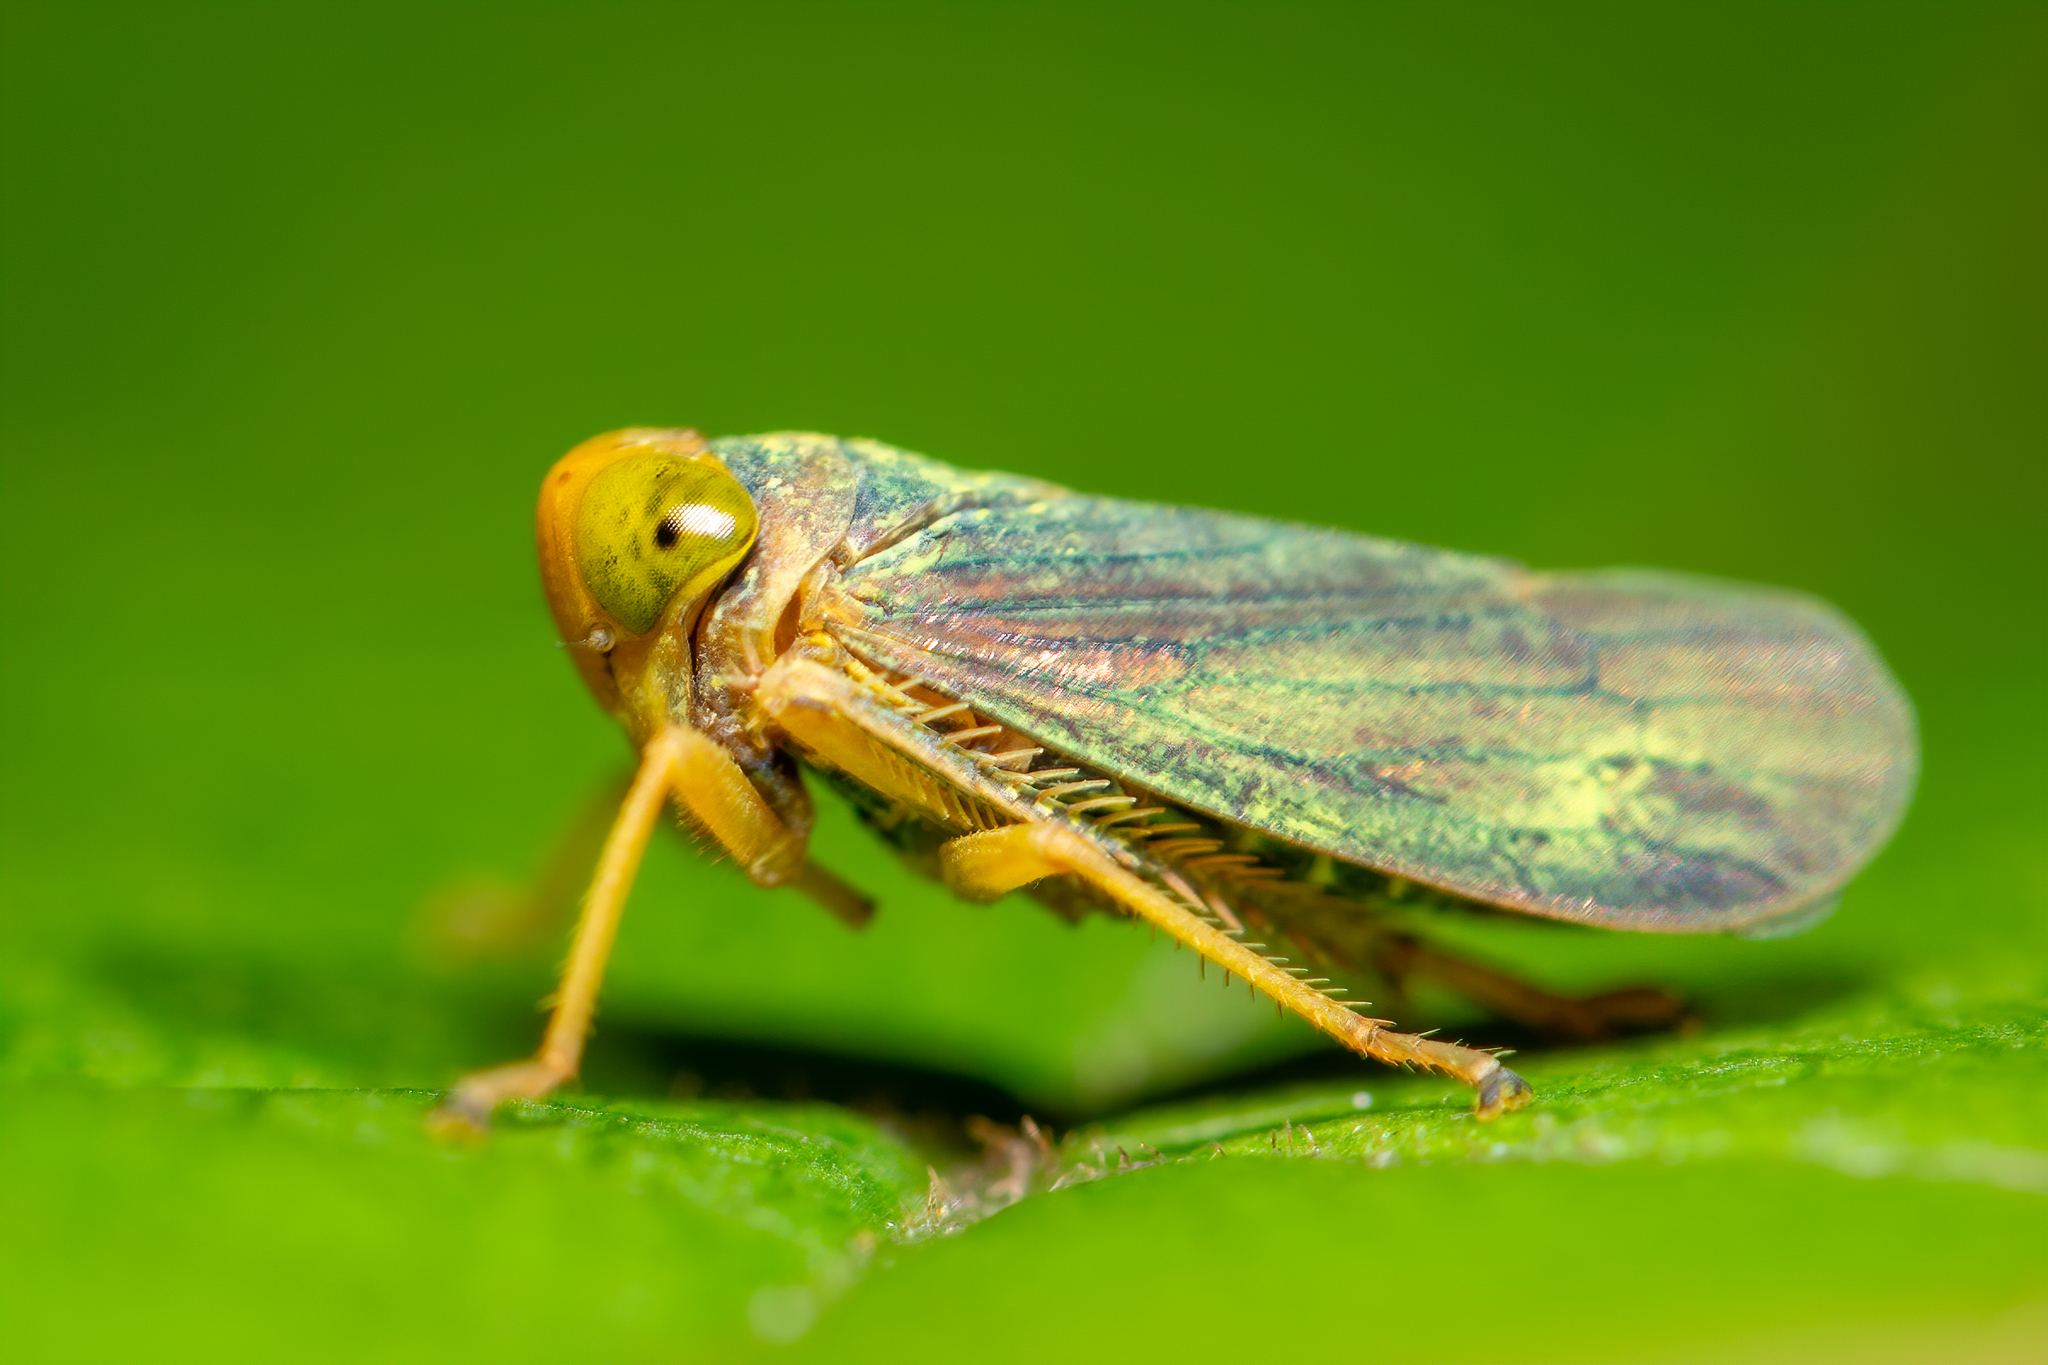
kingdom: Animalia
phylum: Arthropoda
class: Insecta
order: Hemiptera
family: Cicadellidae
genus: Jikradia
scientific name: Jikradia olitoria
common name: Coppery leafhopper
